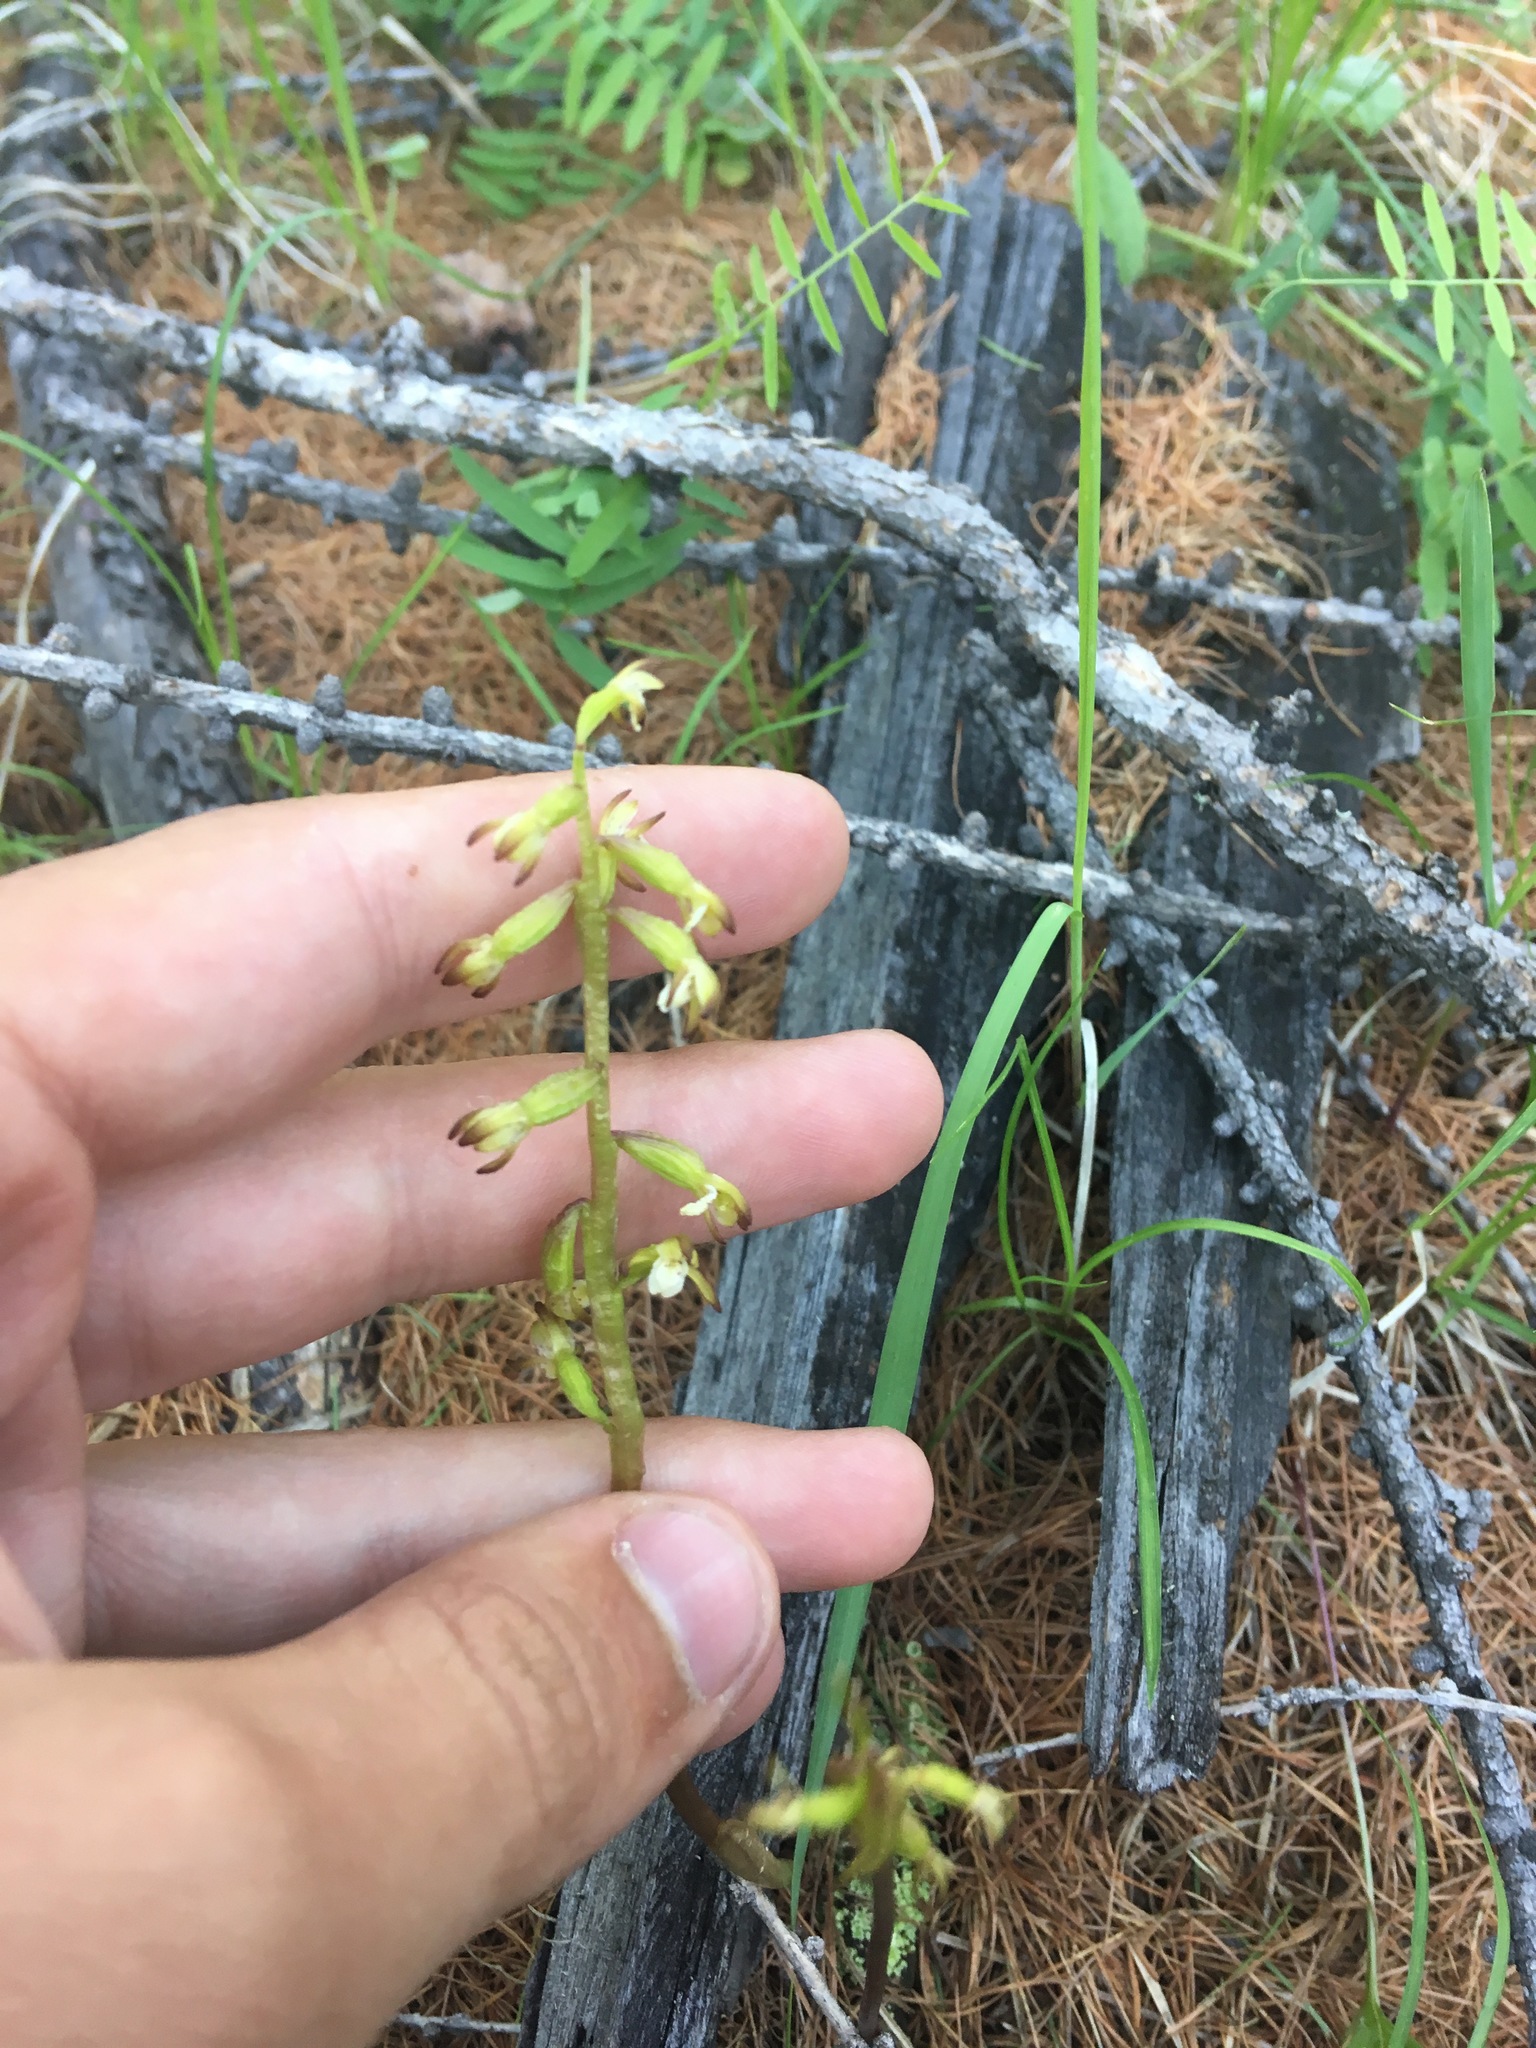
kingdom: Plantae
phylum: Tracheophyta
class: Liliopsida
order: Asparagales
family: Orchidaceae
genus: Corallorhiza
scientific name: Corallorhiza trifida
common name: Yellow coralroot
